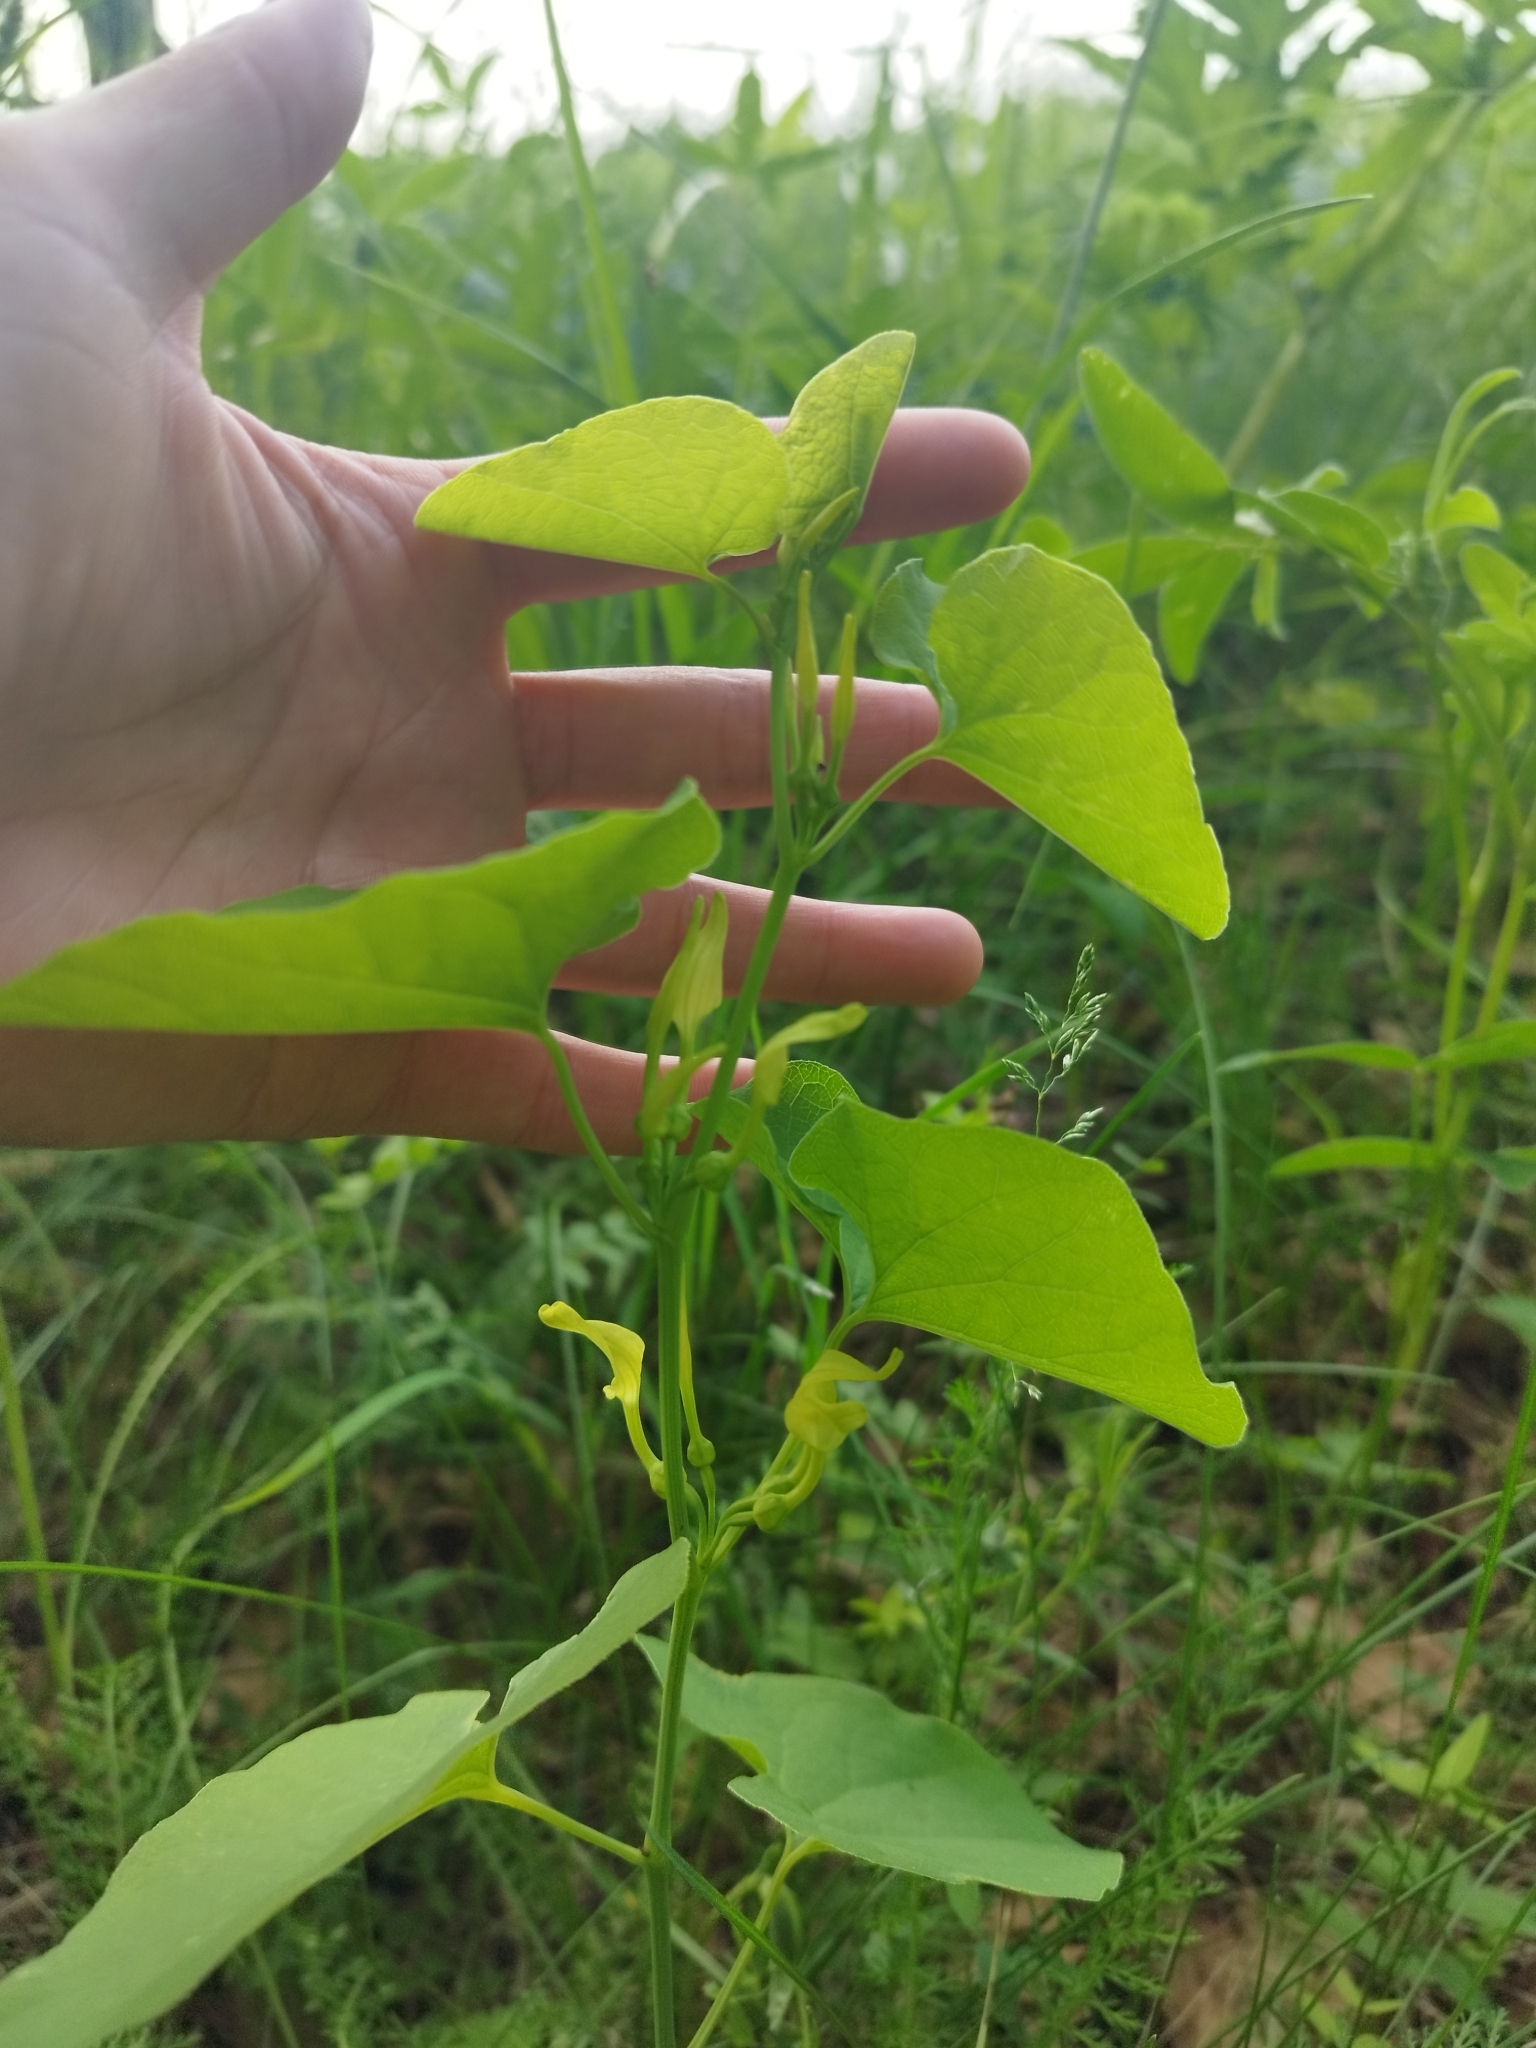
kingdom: Plantae
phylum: Tracheophyta
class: Magnoliopsida
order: Piperales
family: Aristolochiaceae
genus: Aristolochia
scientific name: Aristolochia clematitis
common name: Birthwort
